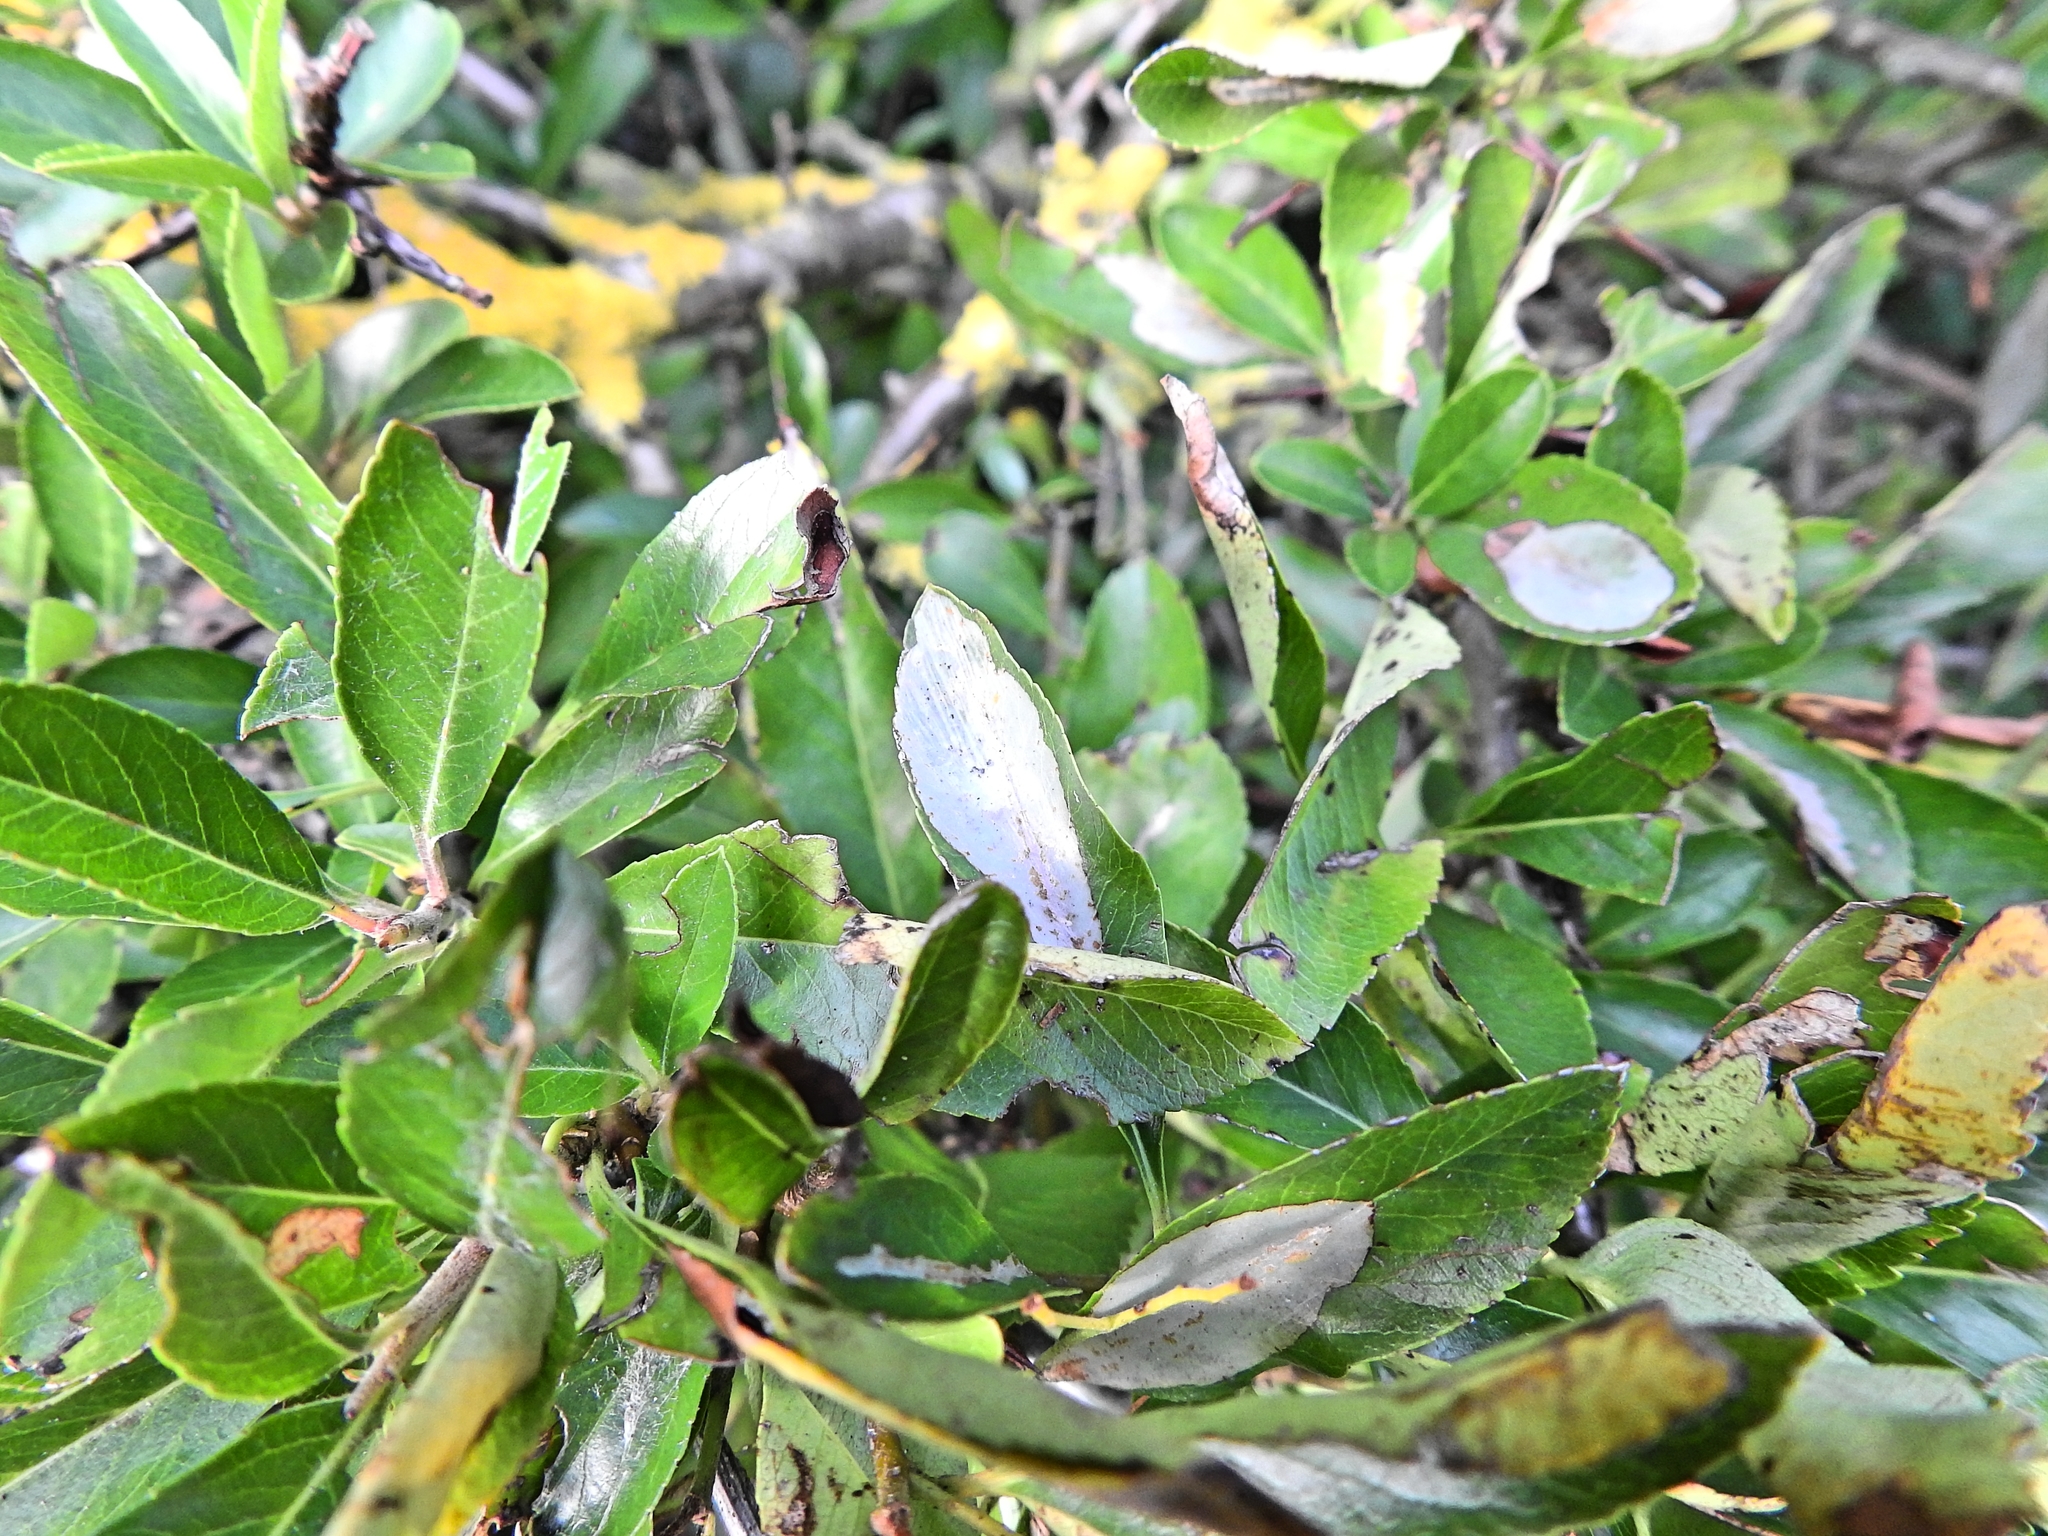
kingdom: Animalia
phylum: Arthropoda
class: Insecta
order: Lepidoptera
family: Gracillariidae
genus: Phyllonorycter
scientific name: Phyllonorycter leucographella
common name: Firethorn leaf-miner
